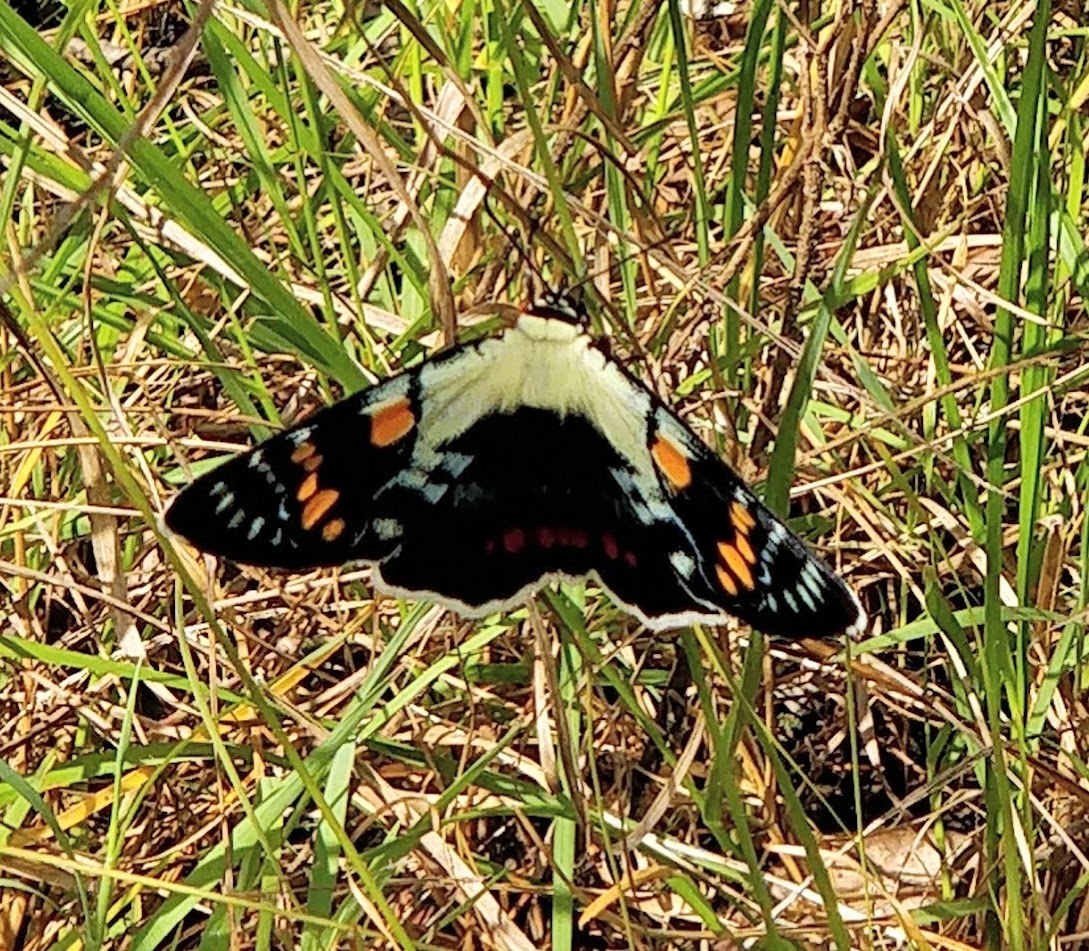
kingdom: Animalia
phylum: Arthropoda
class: Insecta
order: Lepidoptera
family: Noctuidae
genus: Agarista
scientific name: Agarista agricola
